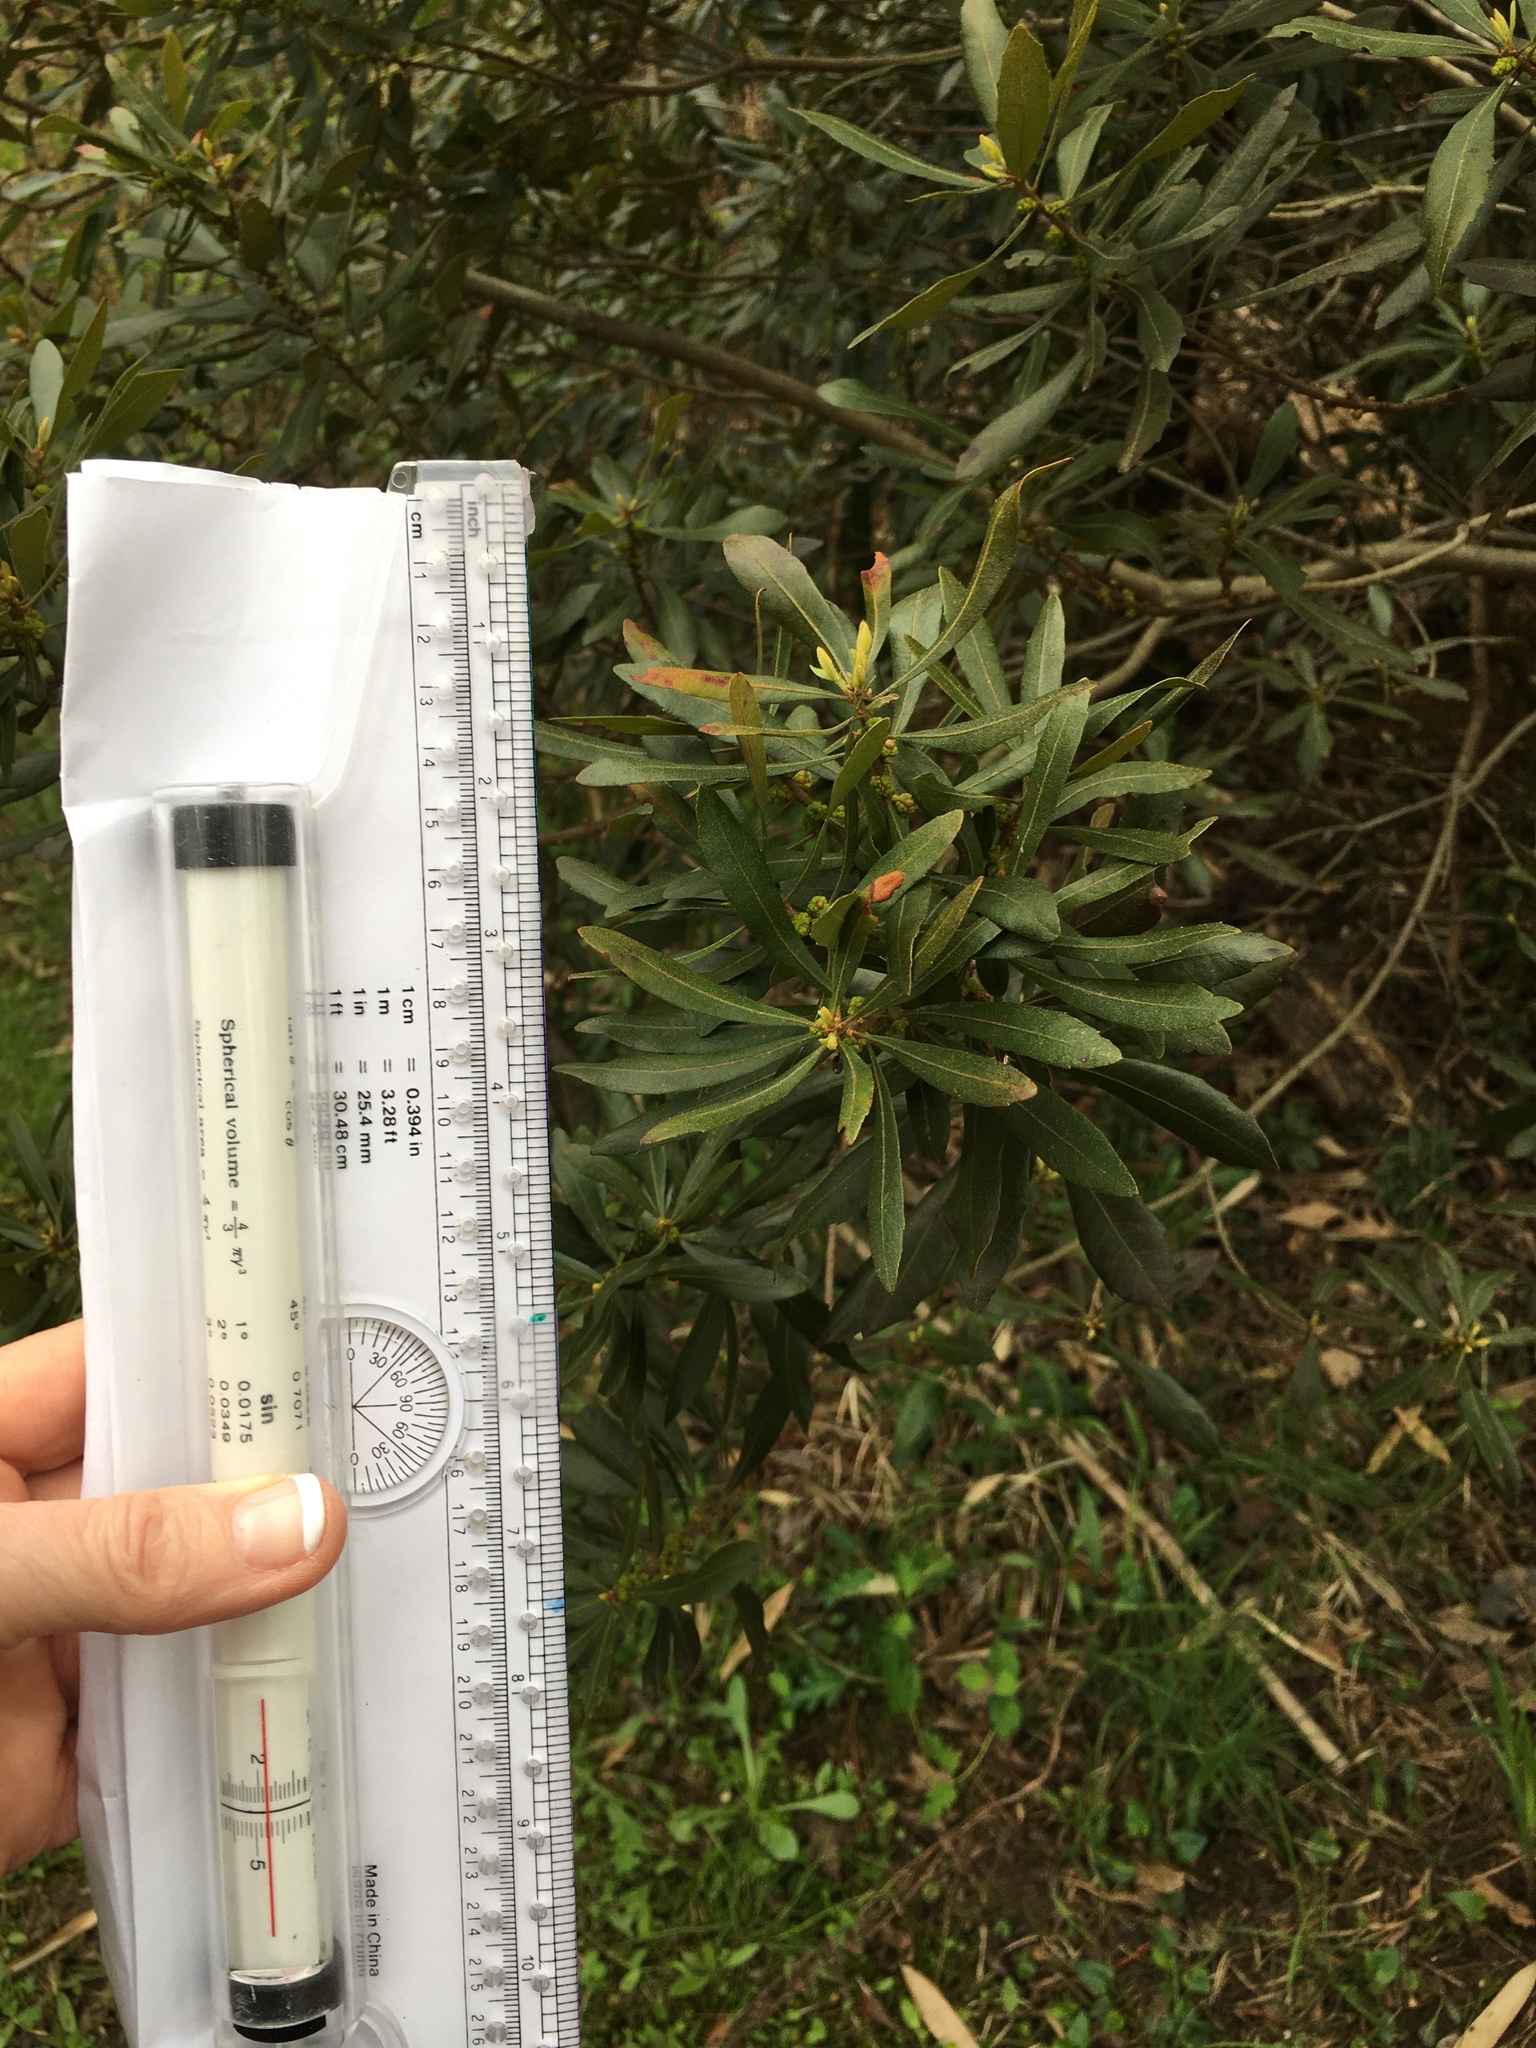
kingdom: Plantae
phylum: Tracheophyta
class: Magnoliopsida
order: Fagales
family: Myricaceae
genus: Morella
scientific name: Morella cerifera
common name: Wax myrtle
